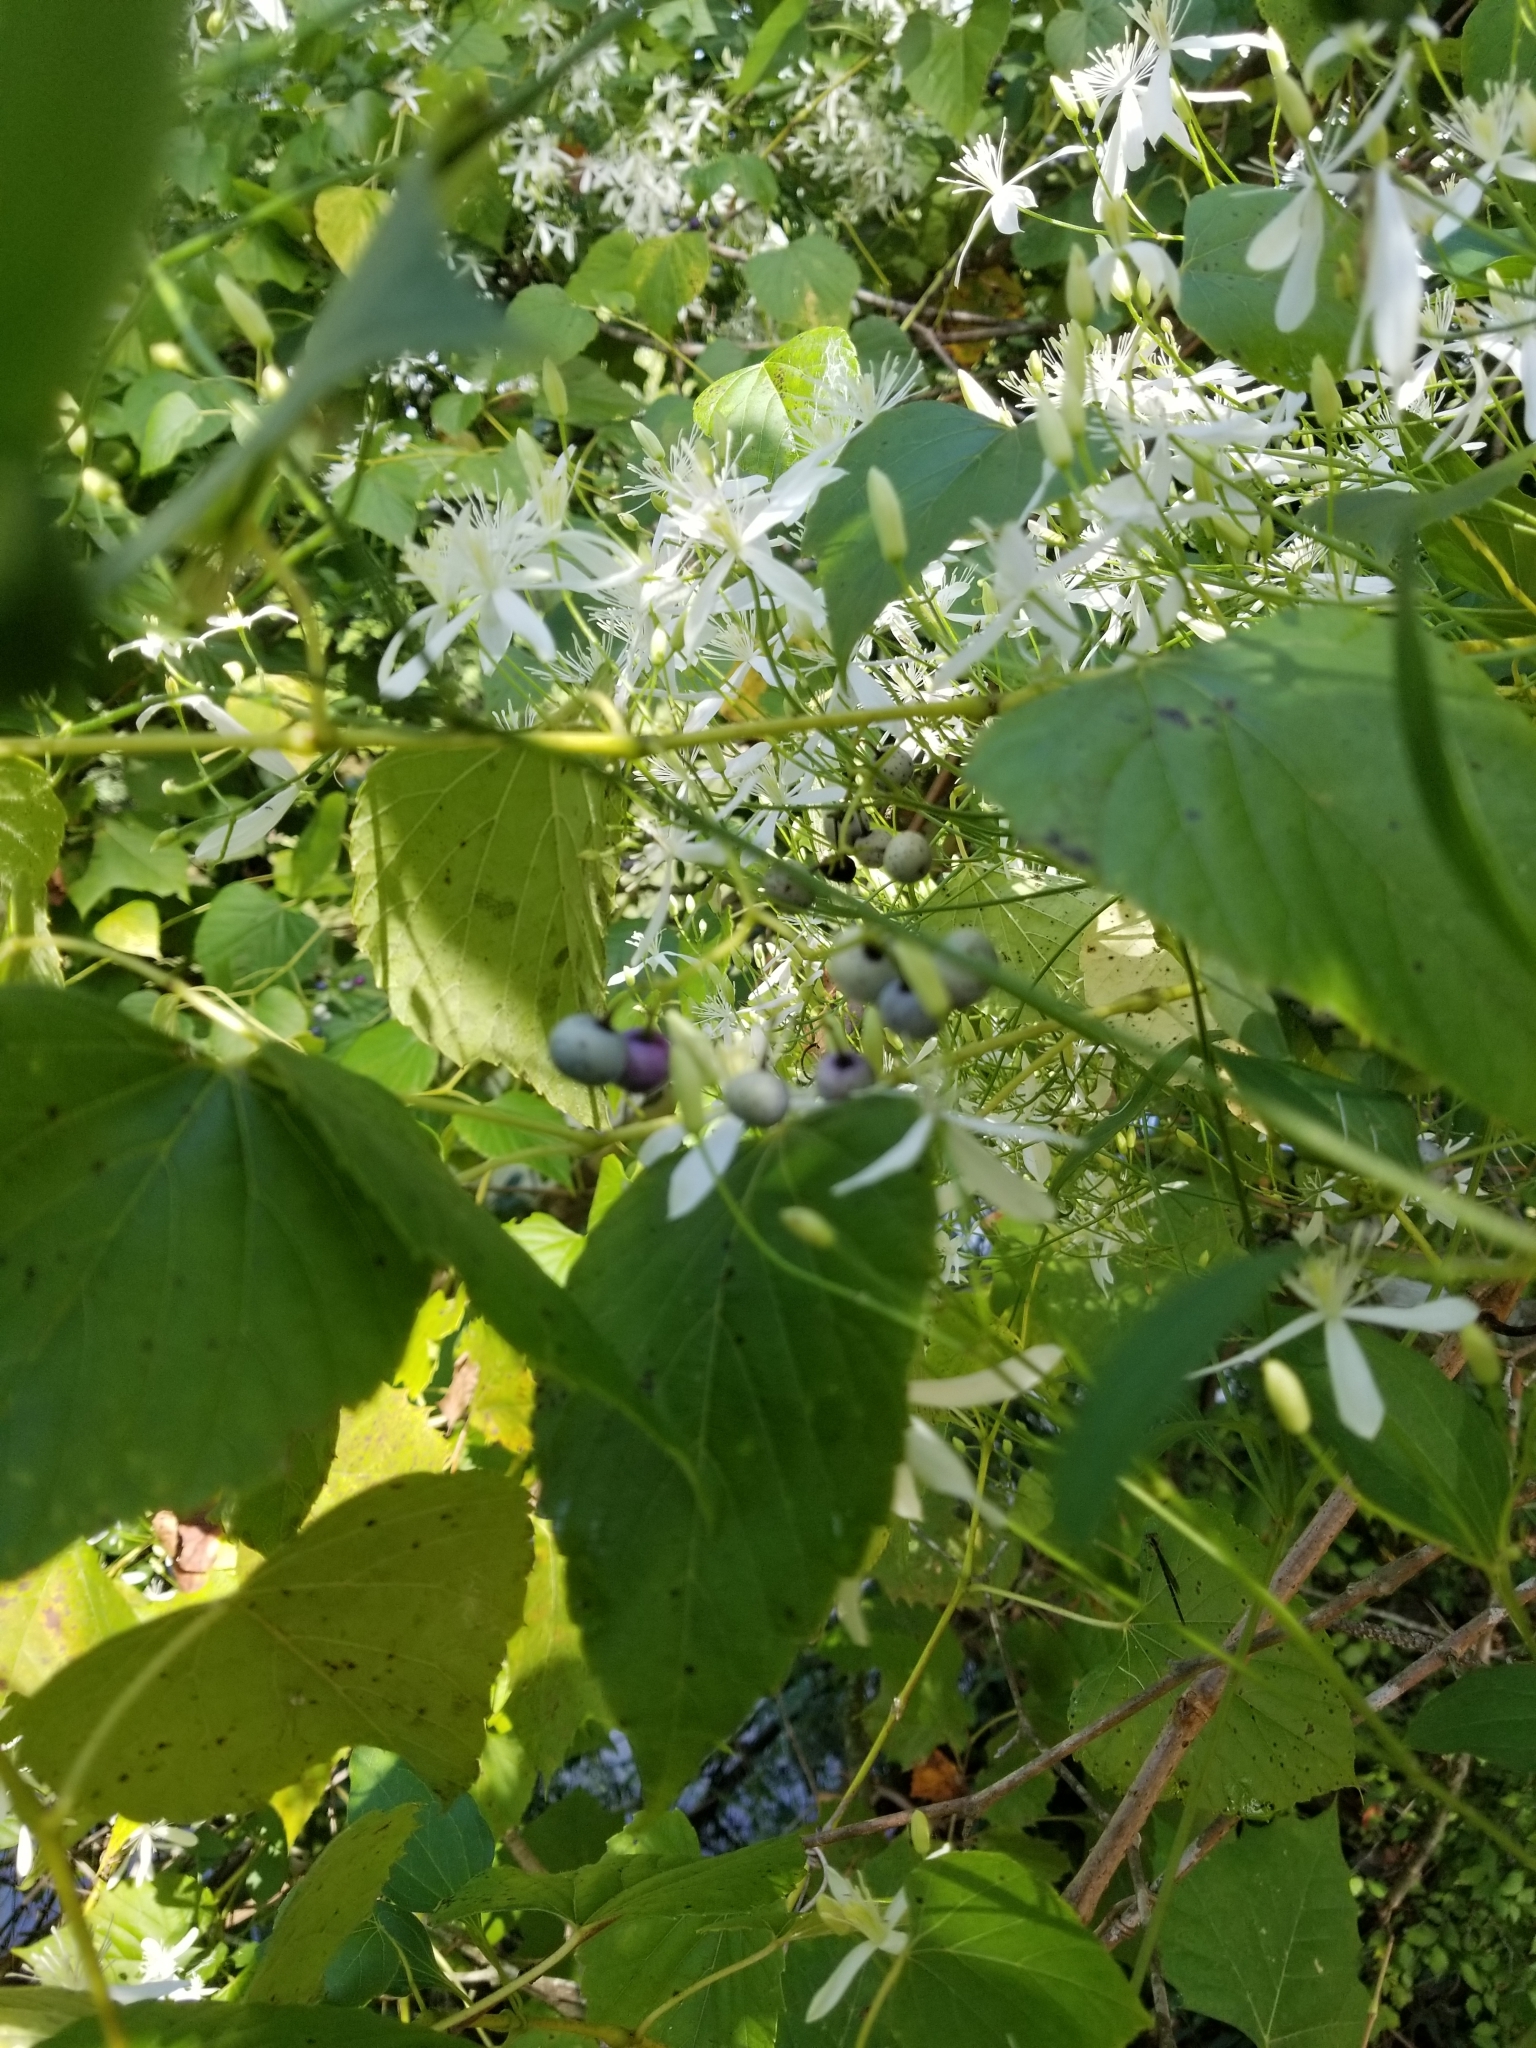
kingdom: Plantae
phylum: Tracheophyta
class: Magnoliopsida
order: Ranunculales
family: Ranunculaceae
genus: Clematis
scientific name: Clematis terniflora
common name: Sweet autumn clematis
